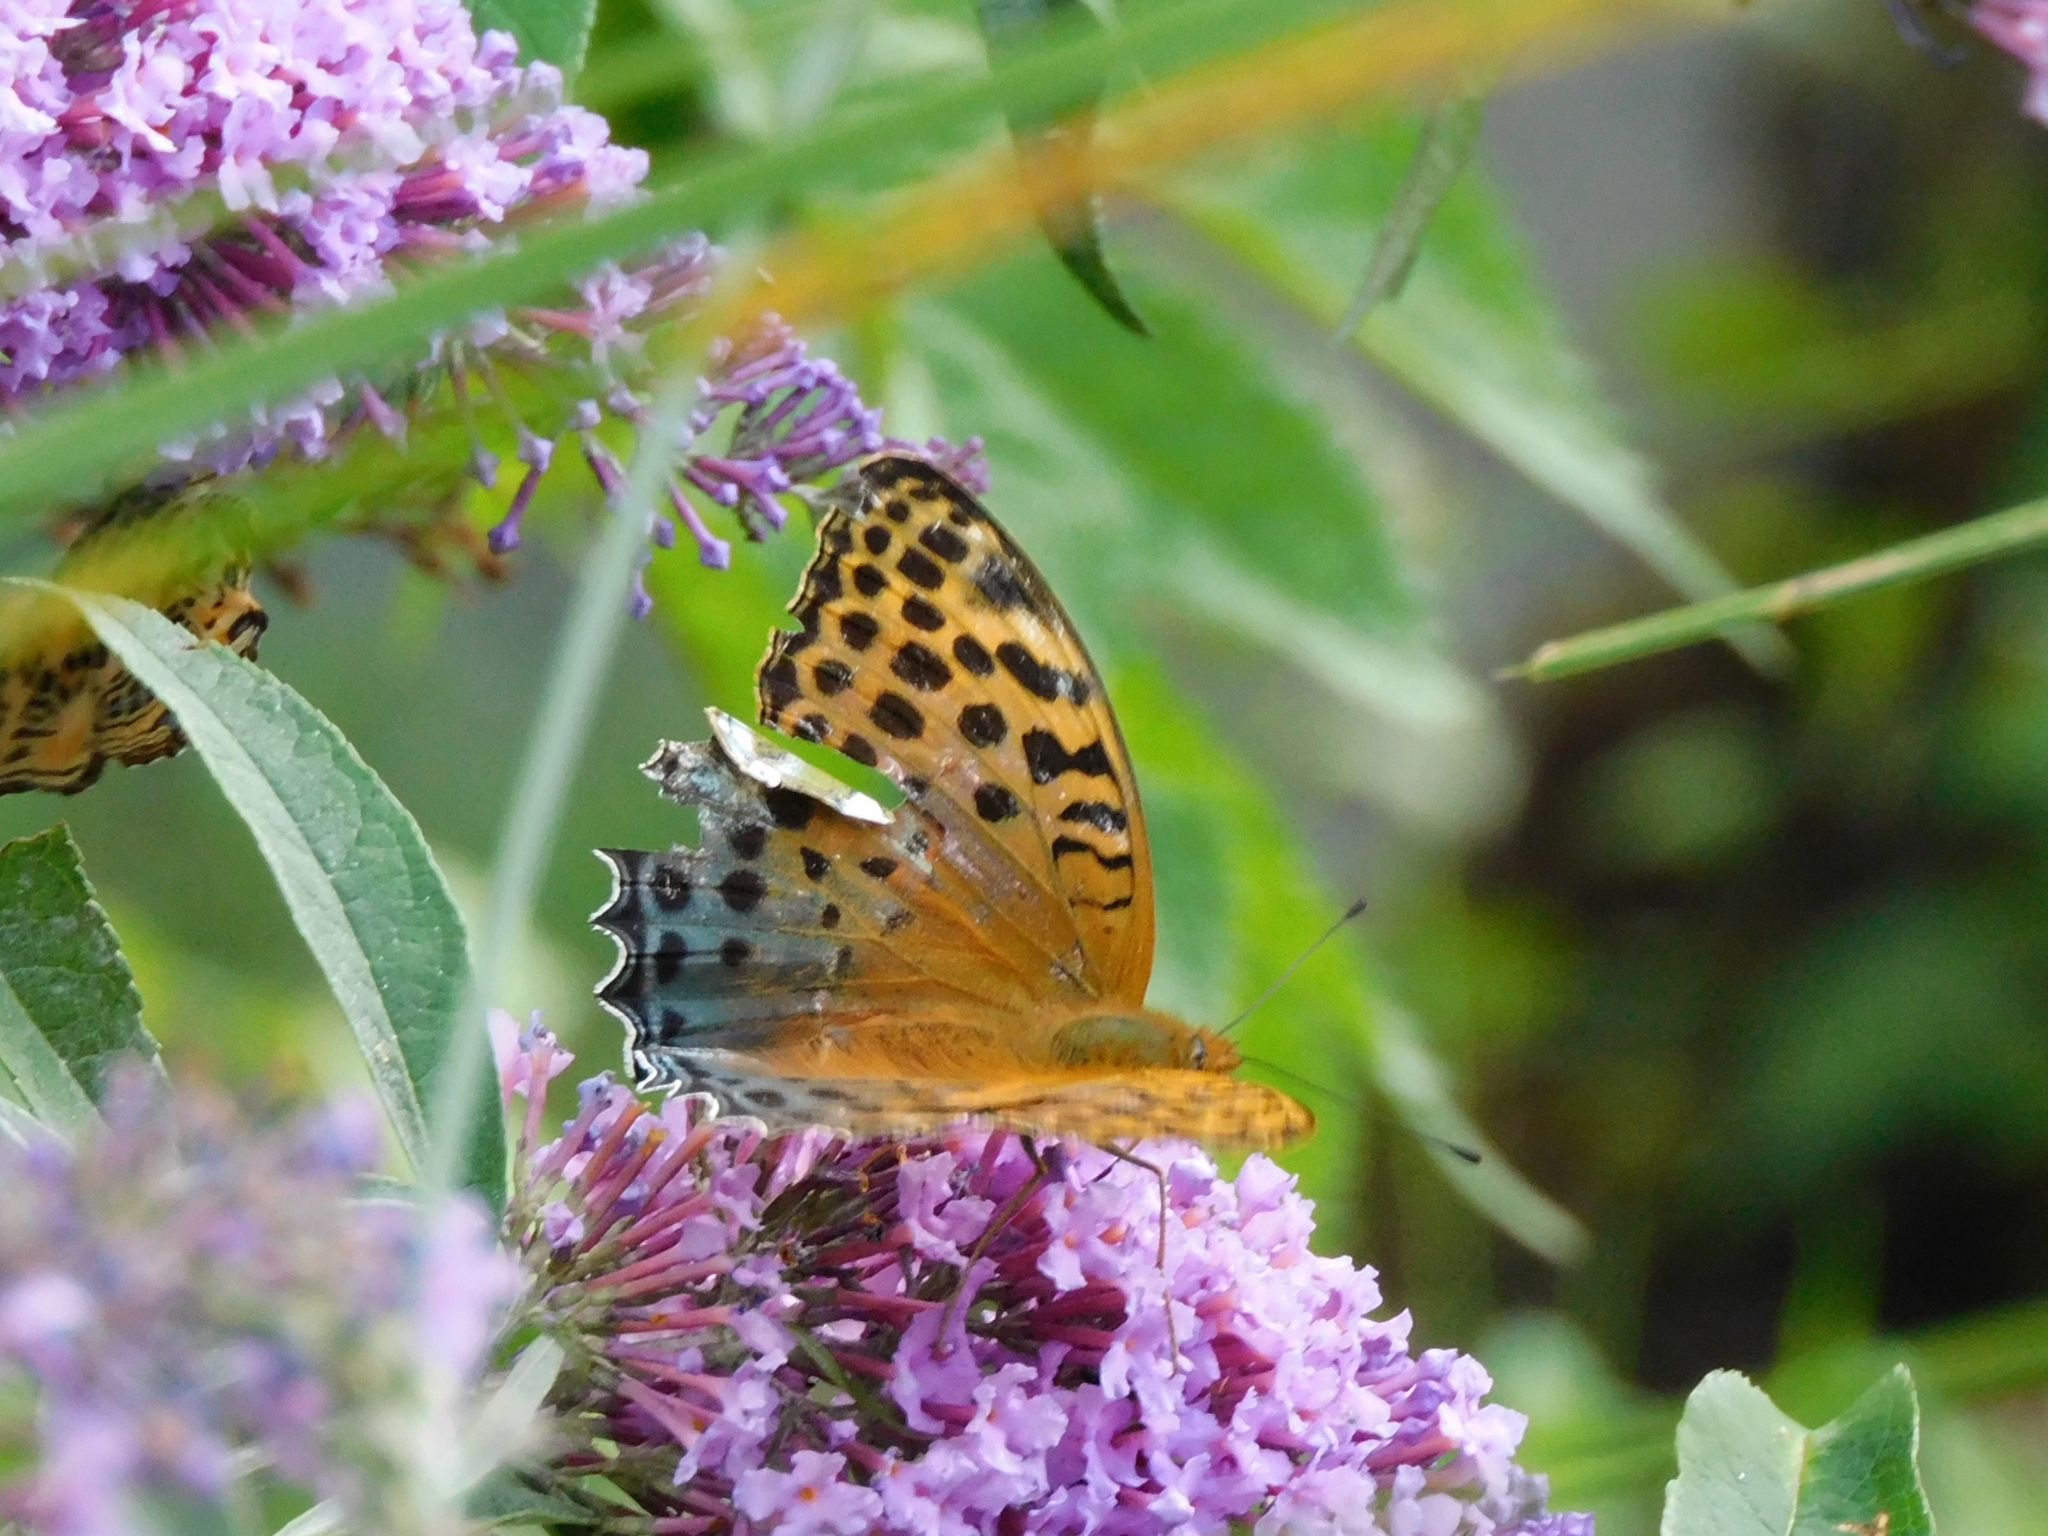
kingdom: Animalia
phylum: Arthropoda
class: Insecta
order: Lepidoptera
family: Nymphalidae
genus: Childrena
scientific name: Childrena childreni
